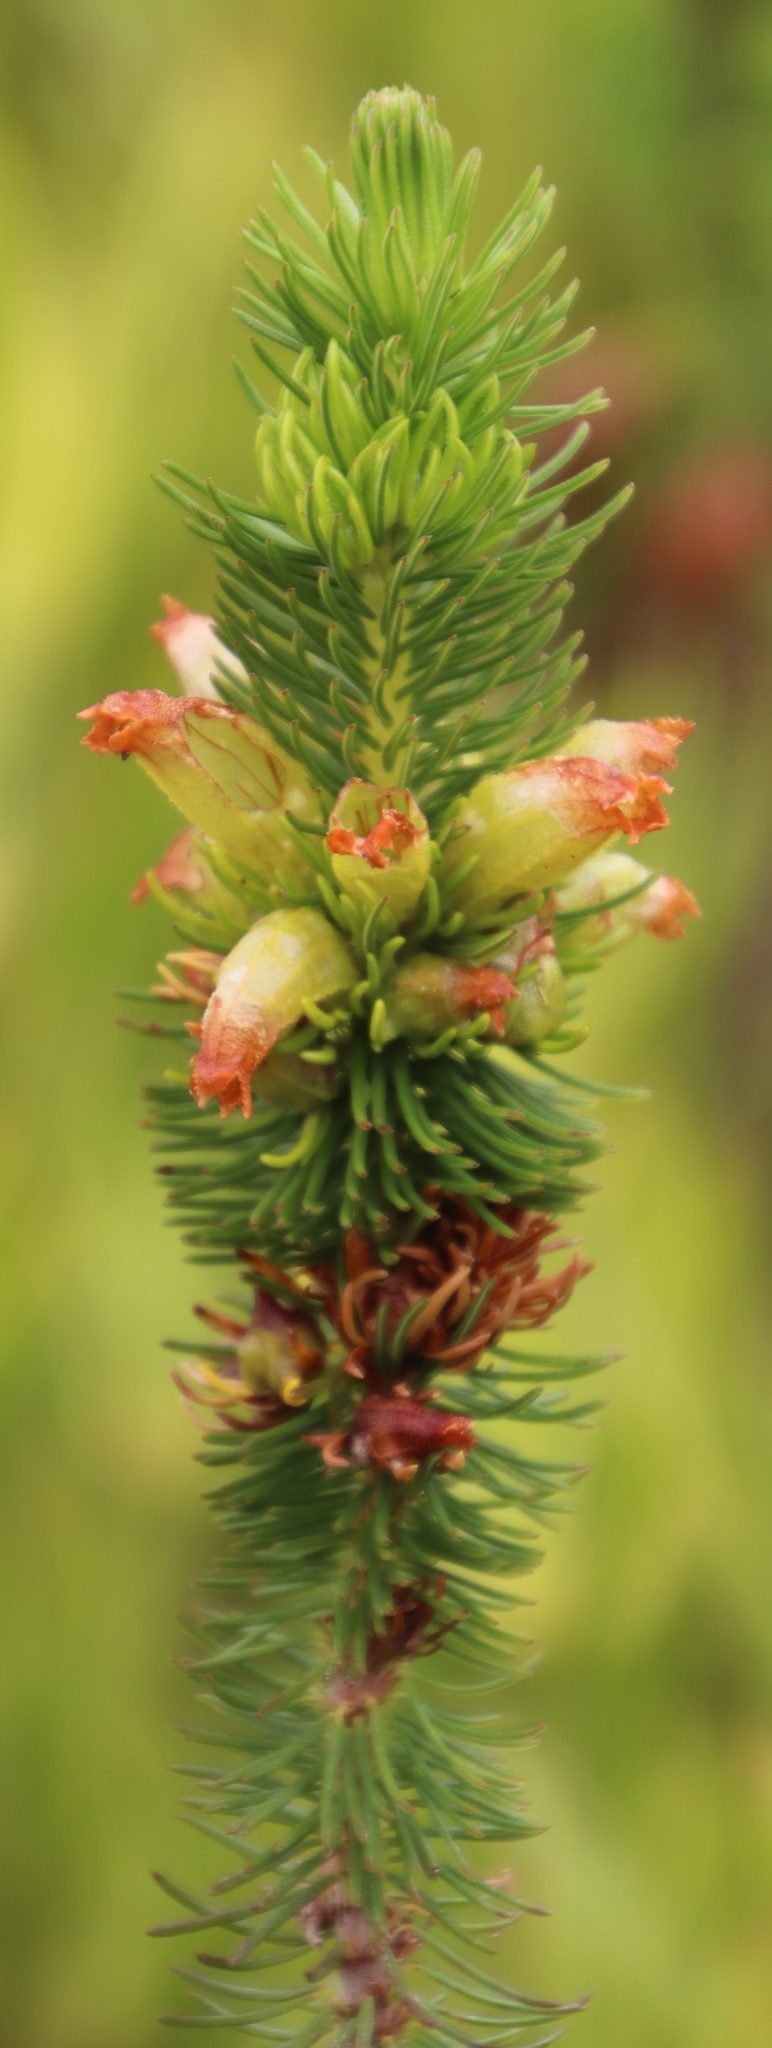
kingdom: Plantae
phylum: Tracheophyta
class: Magnoliopsida
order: Ericales
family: Ericaceae
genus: Erica
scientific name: Erica viscaria
